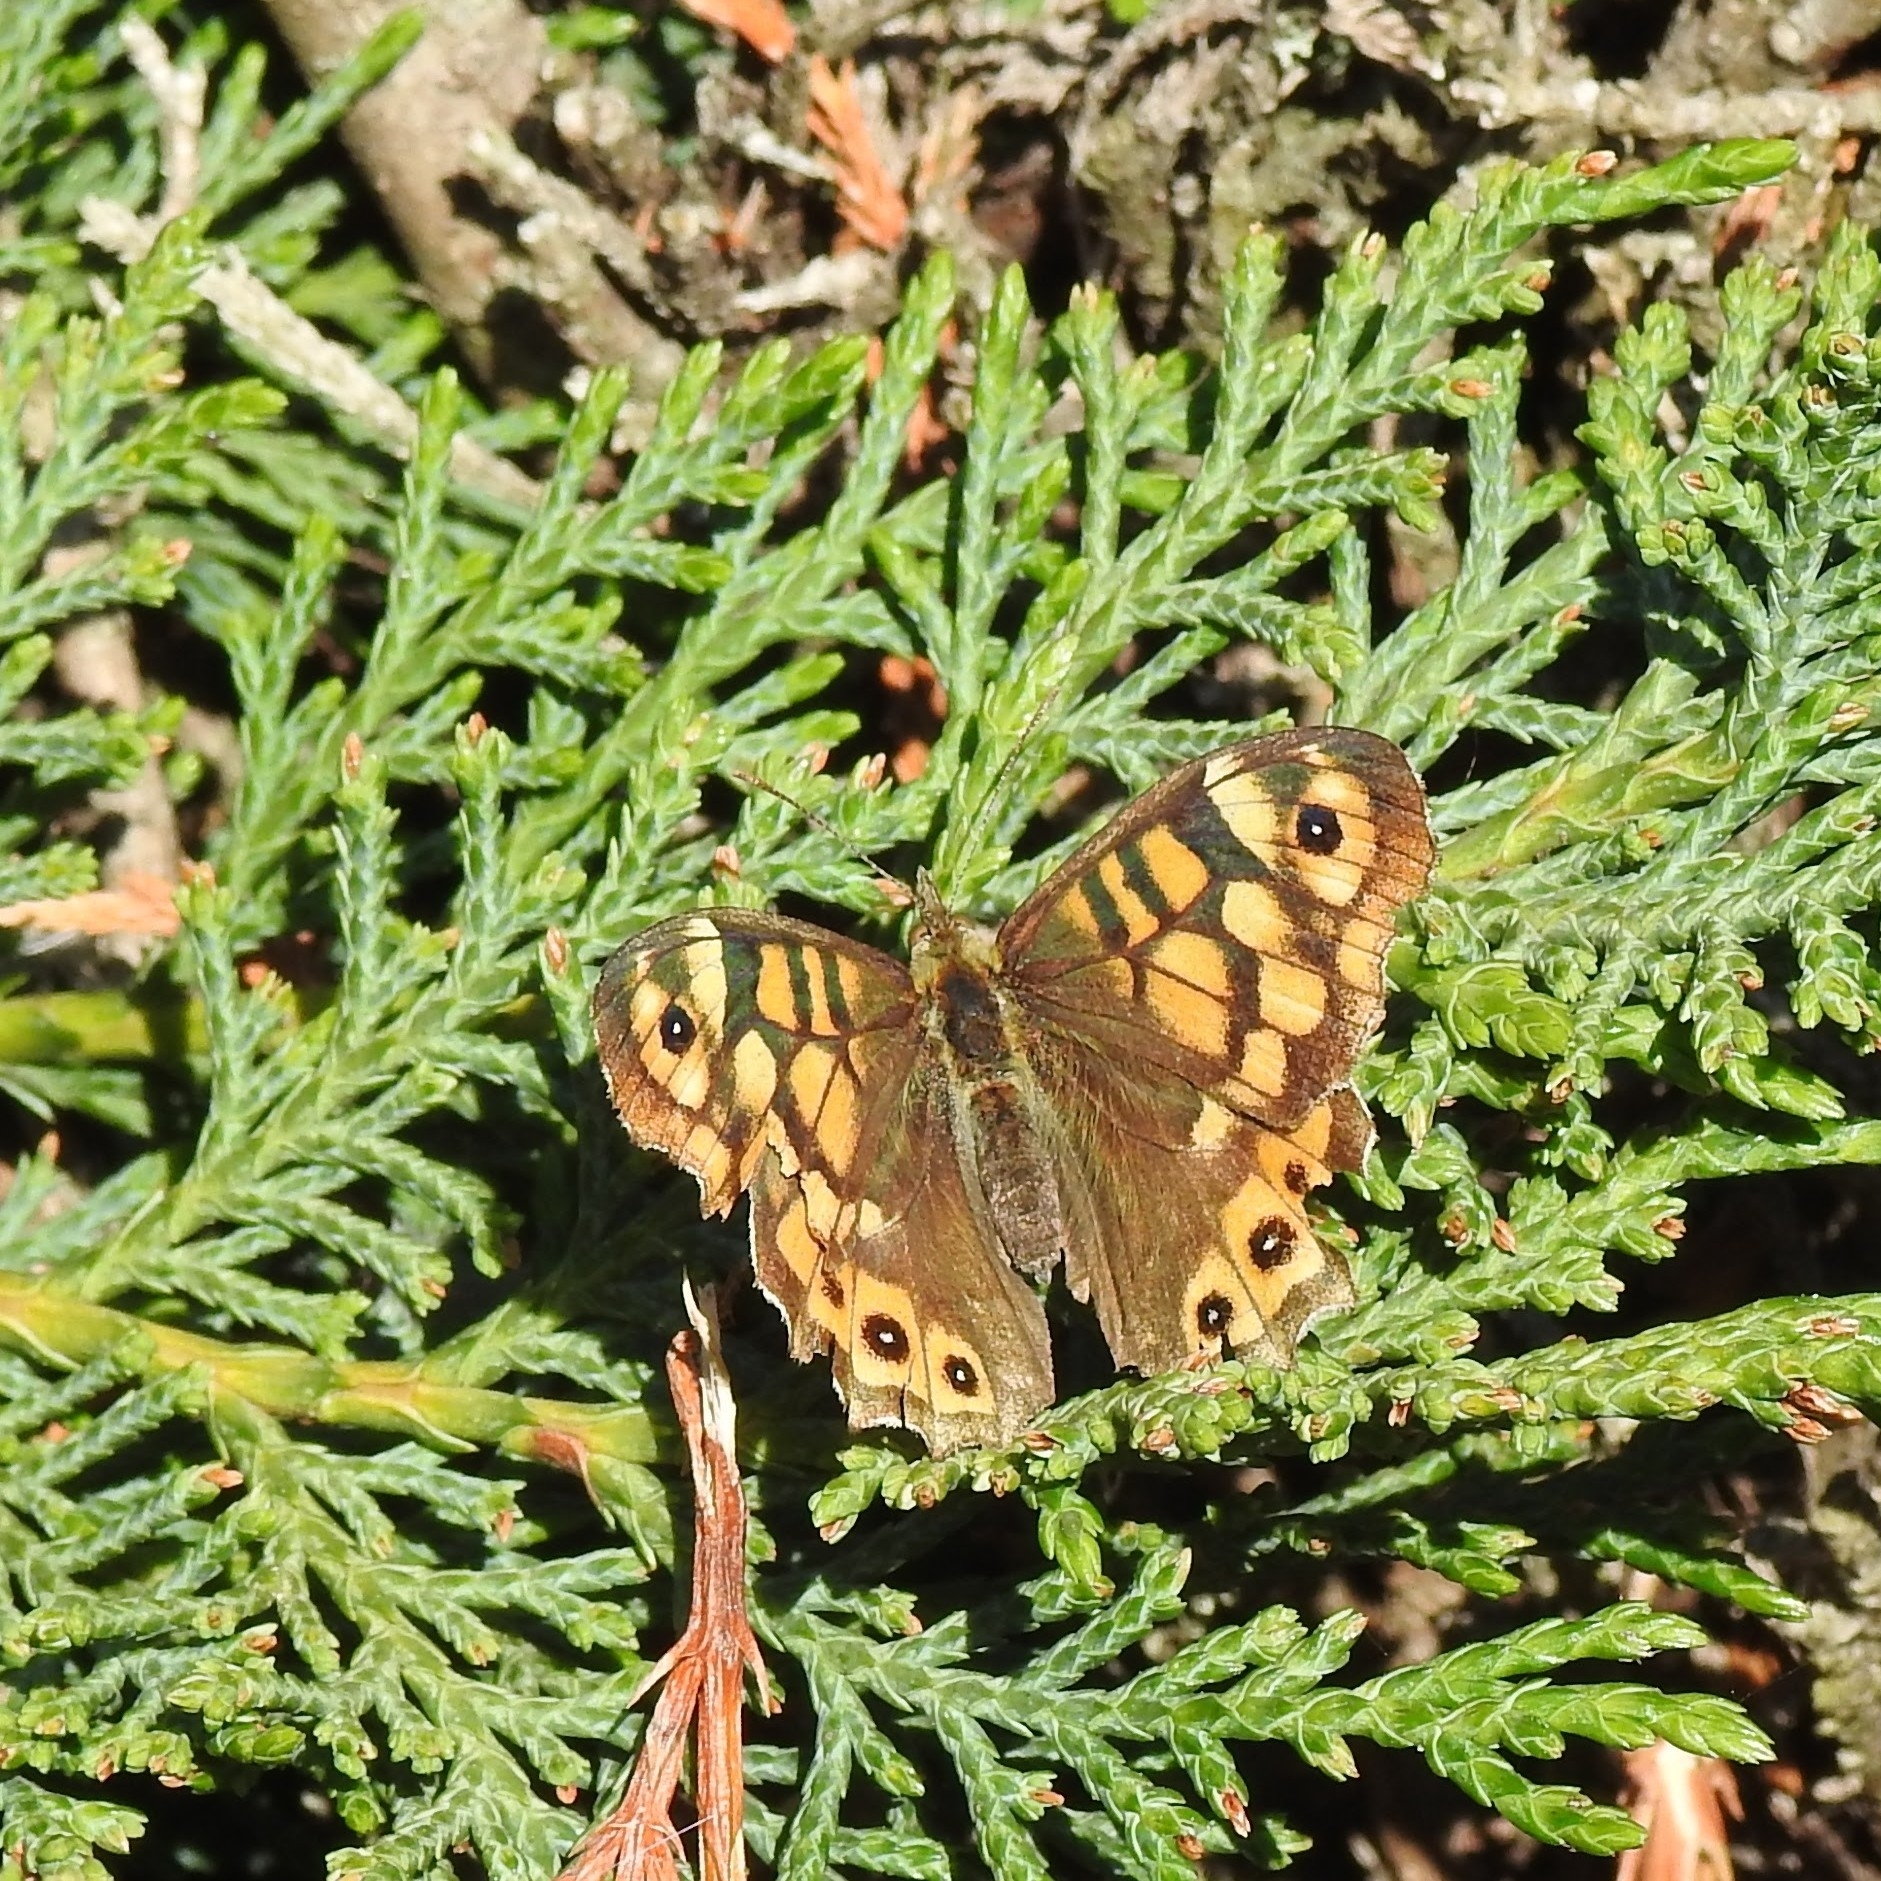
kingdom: Animalia
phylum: Arthropoda
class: Insecta
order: Lepidoptera
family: Nymphalidae
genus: Pararge
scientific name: Pararge aegeria
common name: Speckled wood
